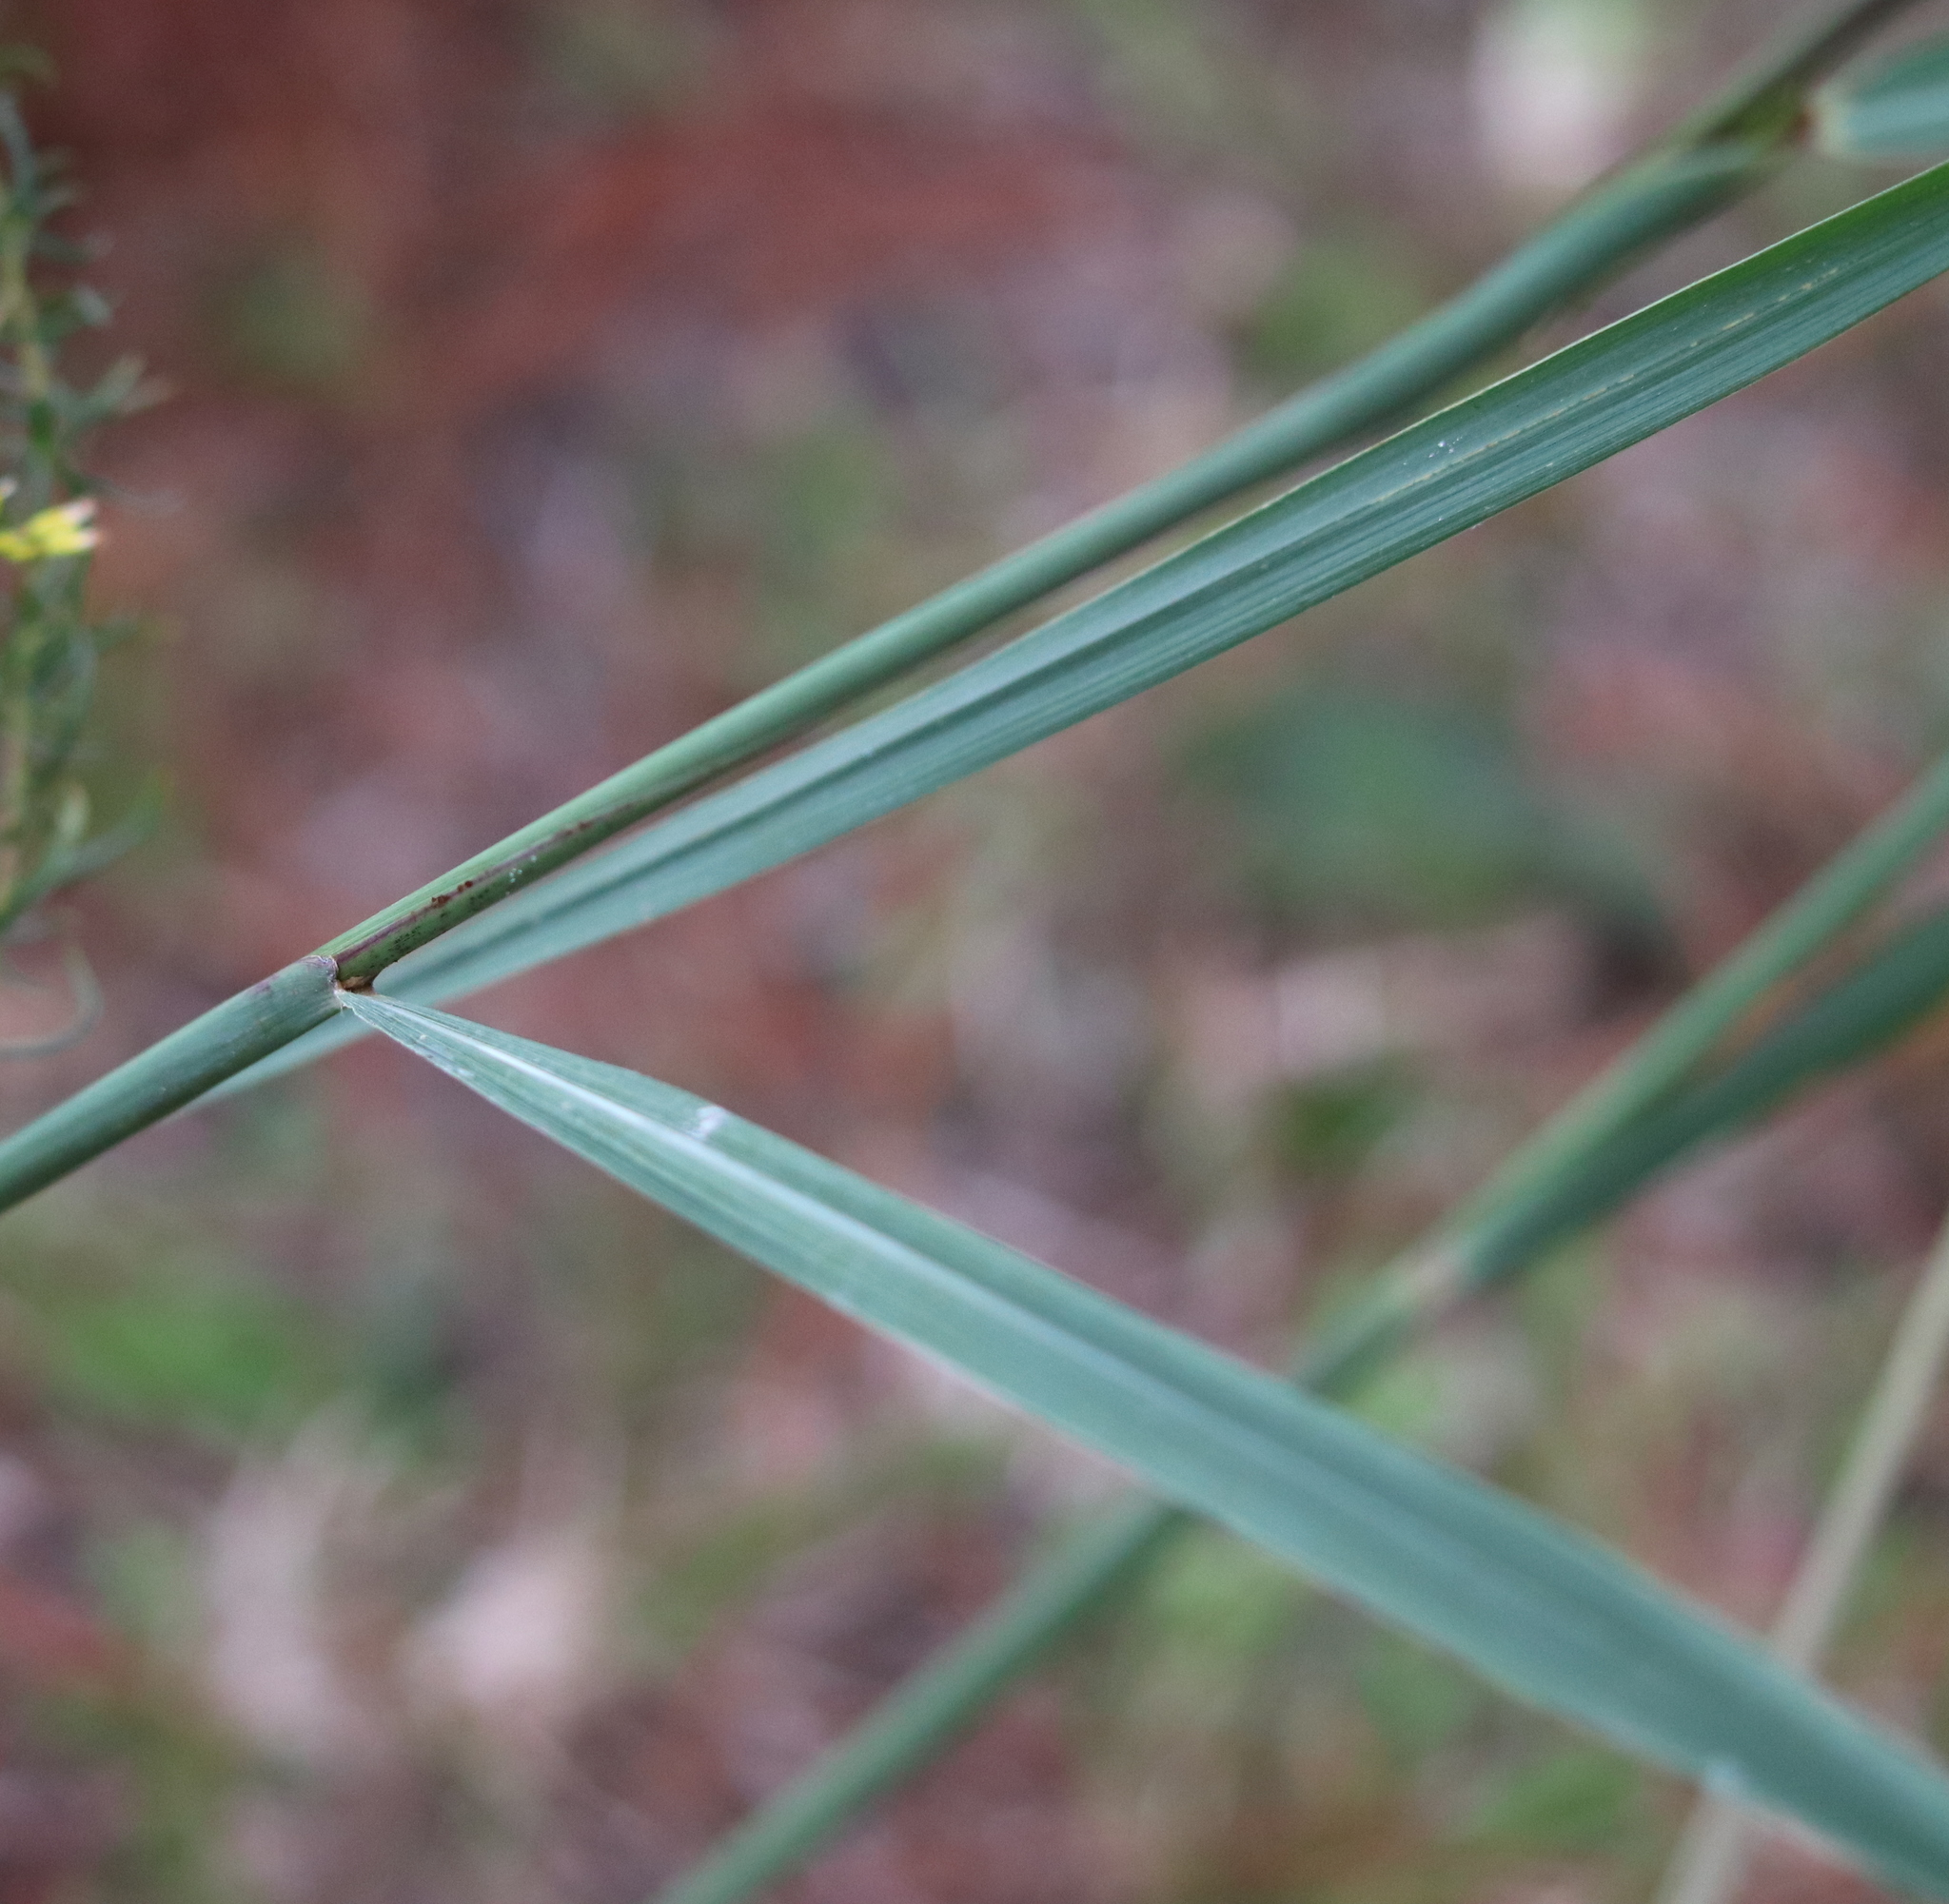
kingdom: Plantae
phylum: Tracheophyta
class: Liliopsida
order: Poales
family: Poaceae
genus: Sorghastrum
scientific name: Sorghastrum nutans
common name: Indian grass
